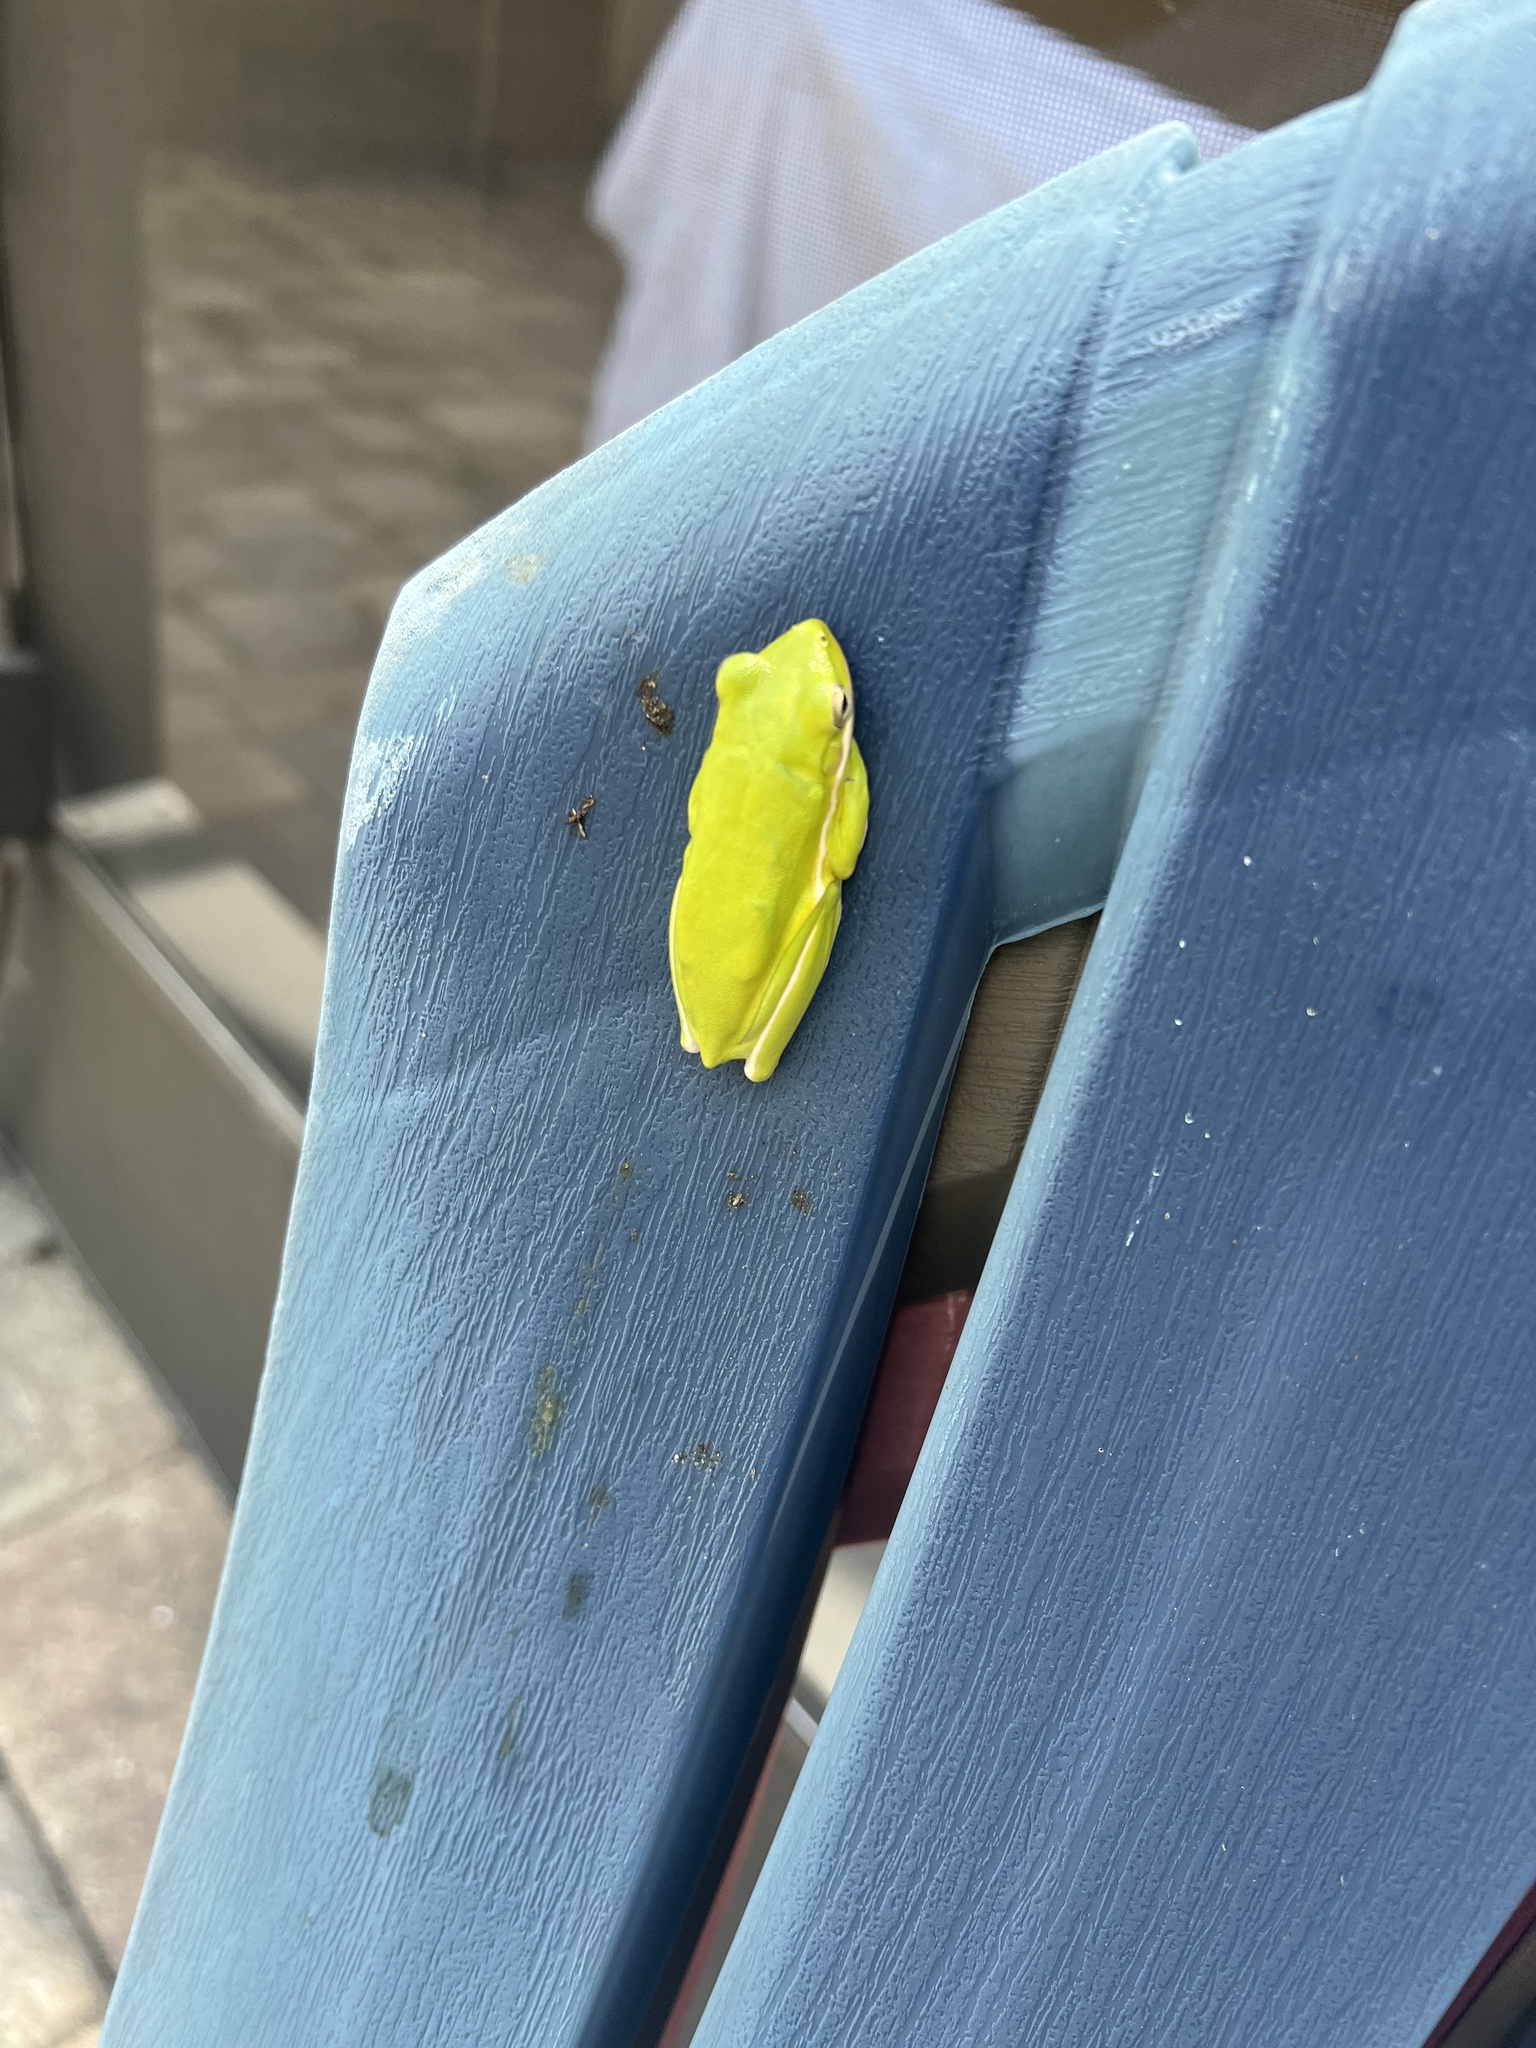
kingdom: Animalia
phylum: Chordata
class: Amphibia
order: Anura
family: Hylidae
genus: Dryophytes
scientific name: Dryophytes cinereus
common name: Green treefrog
